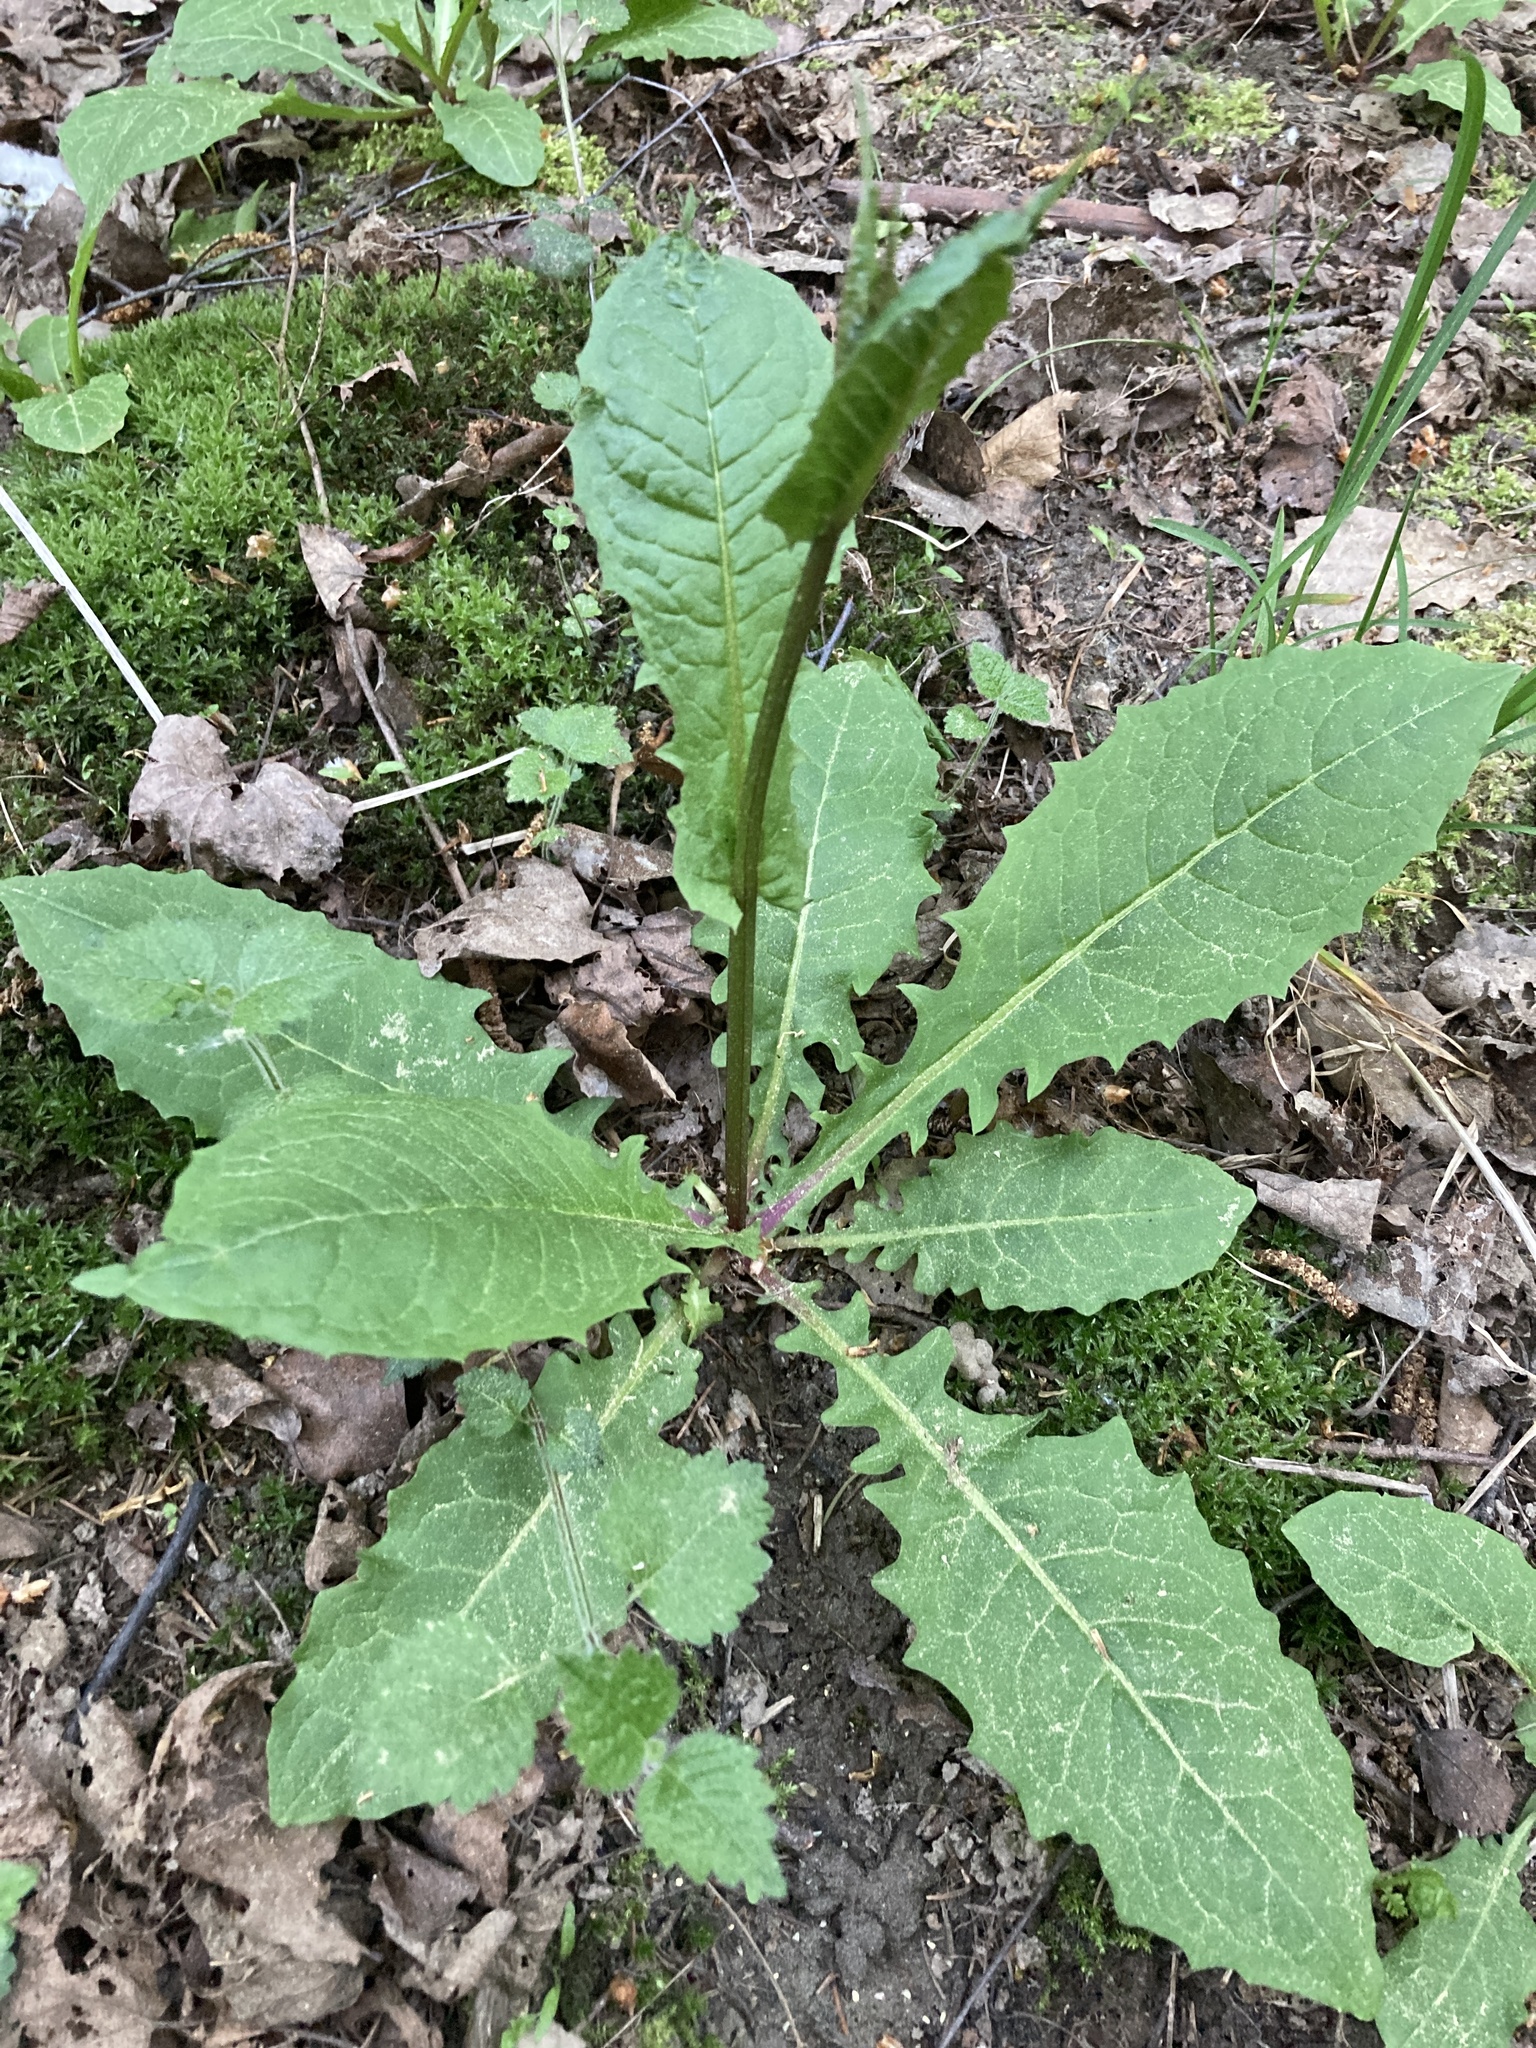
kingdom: Plantae
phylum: Tracheophyta
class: Magnoliopsida
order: Asterales
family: Asteraceae
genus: Crepis
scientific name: Crepis paludosa
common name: Marsh hawk's-beard
